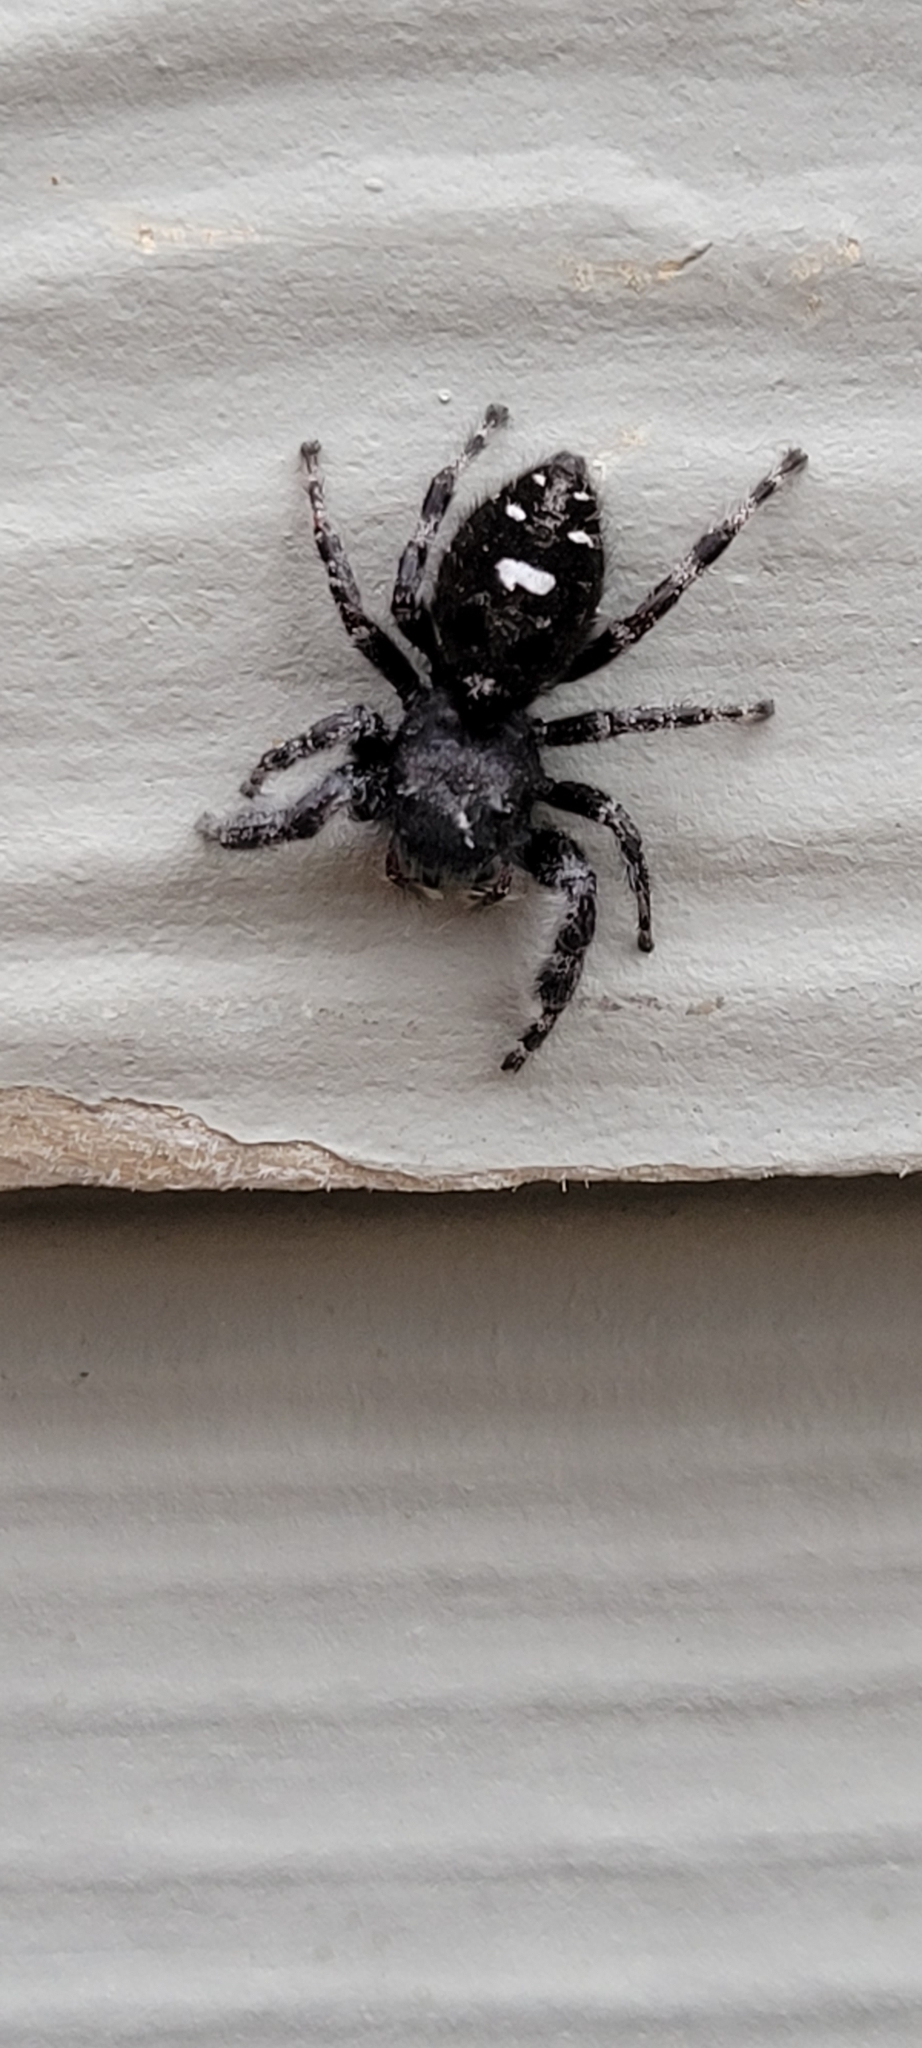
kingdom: Animalia
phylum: Arthropoda
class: Arachnida
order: Araneae
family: Salticidae
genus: Phidippus
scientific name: Phidippus audax
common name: Bold jumper
